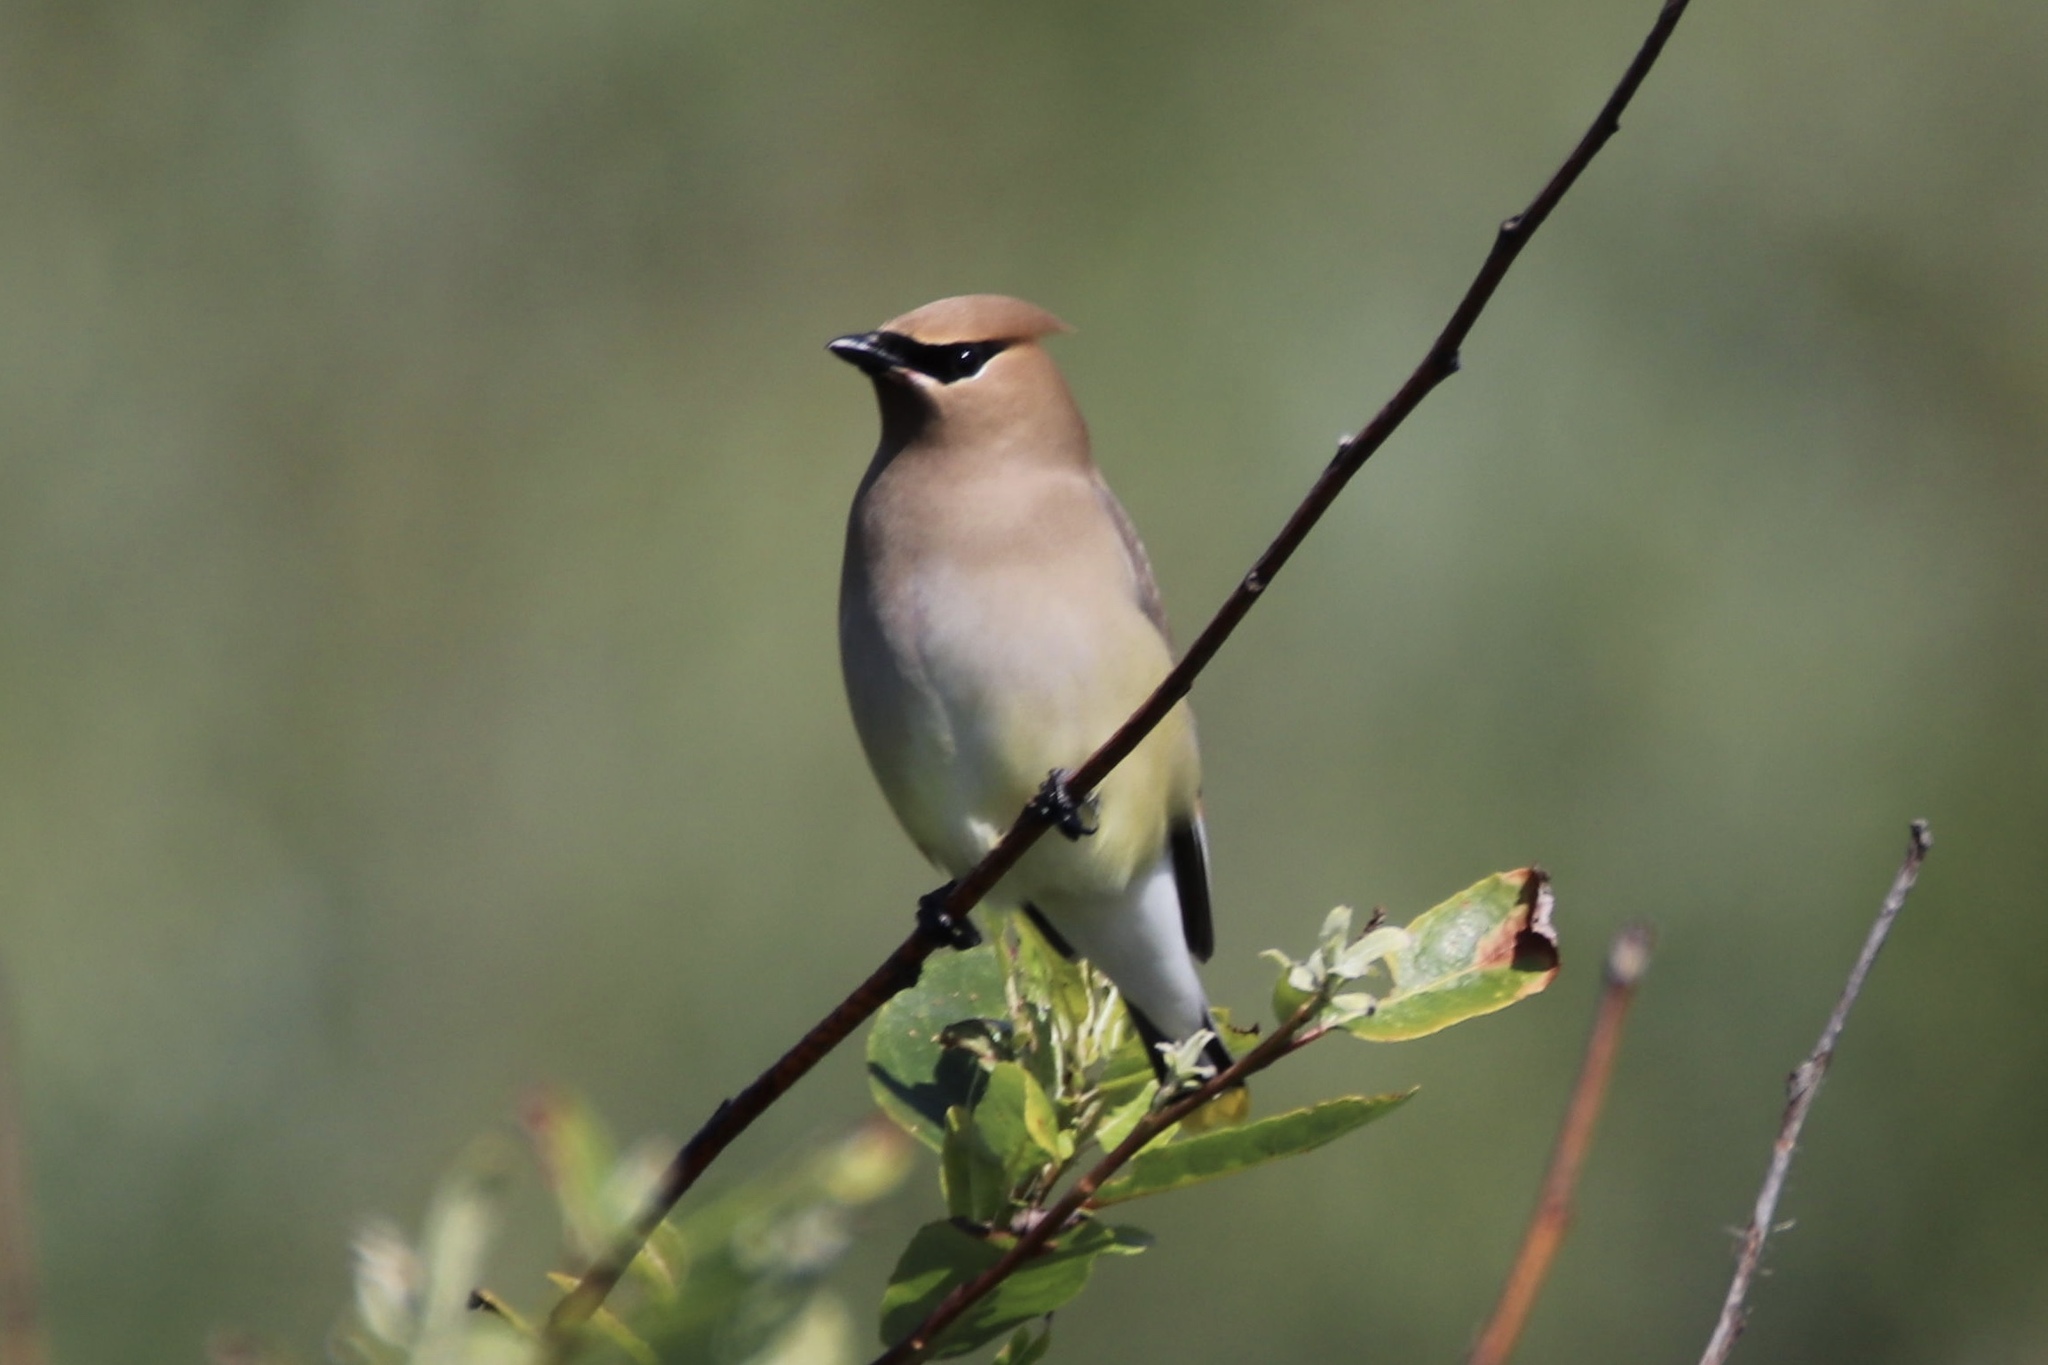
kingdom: Animalia
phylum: Chordata
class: Aves
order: Passeriformes
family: Bombycillidae
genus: Bombycilla
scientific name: Bombycilla cedrorum
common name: Cedar waxwing
